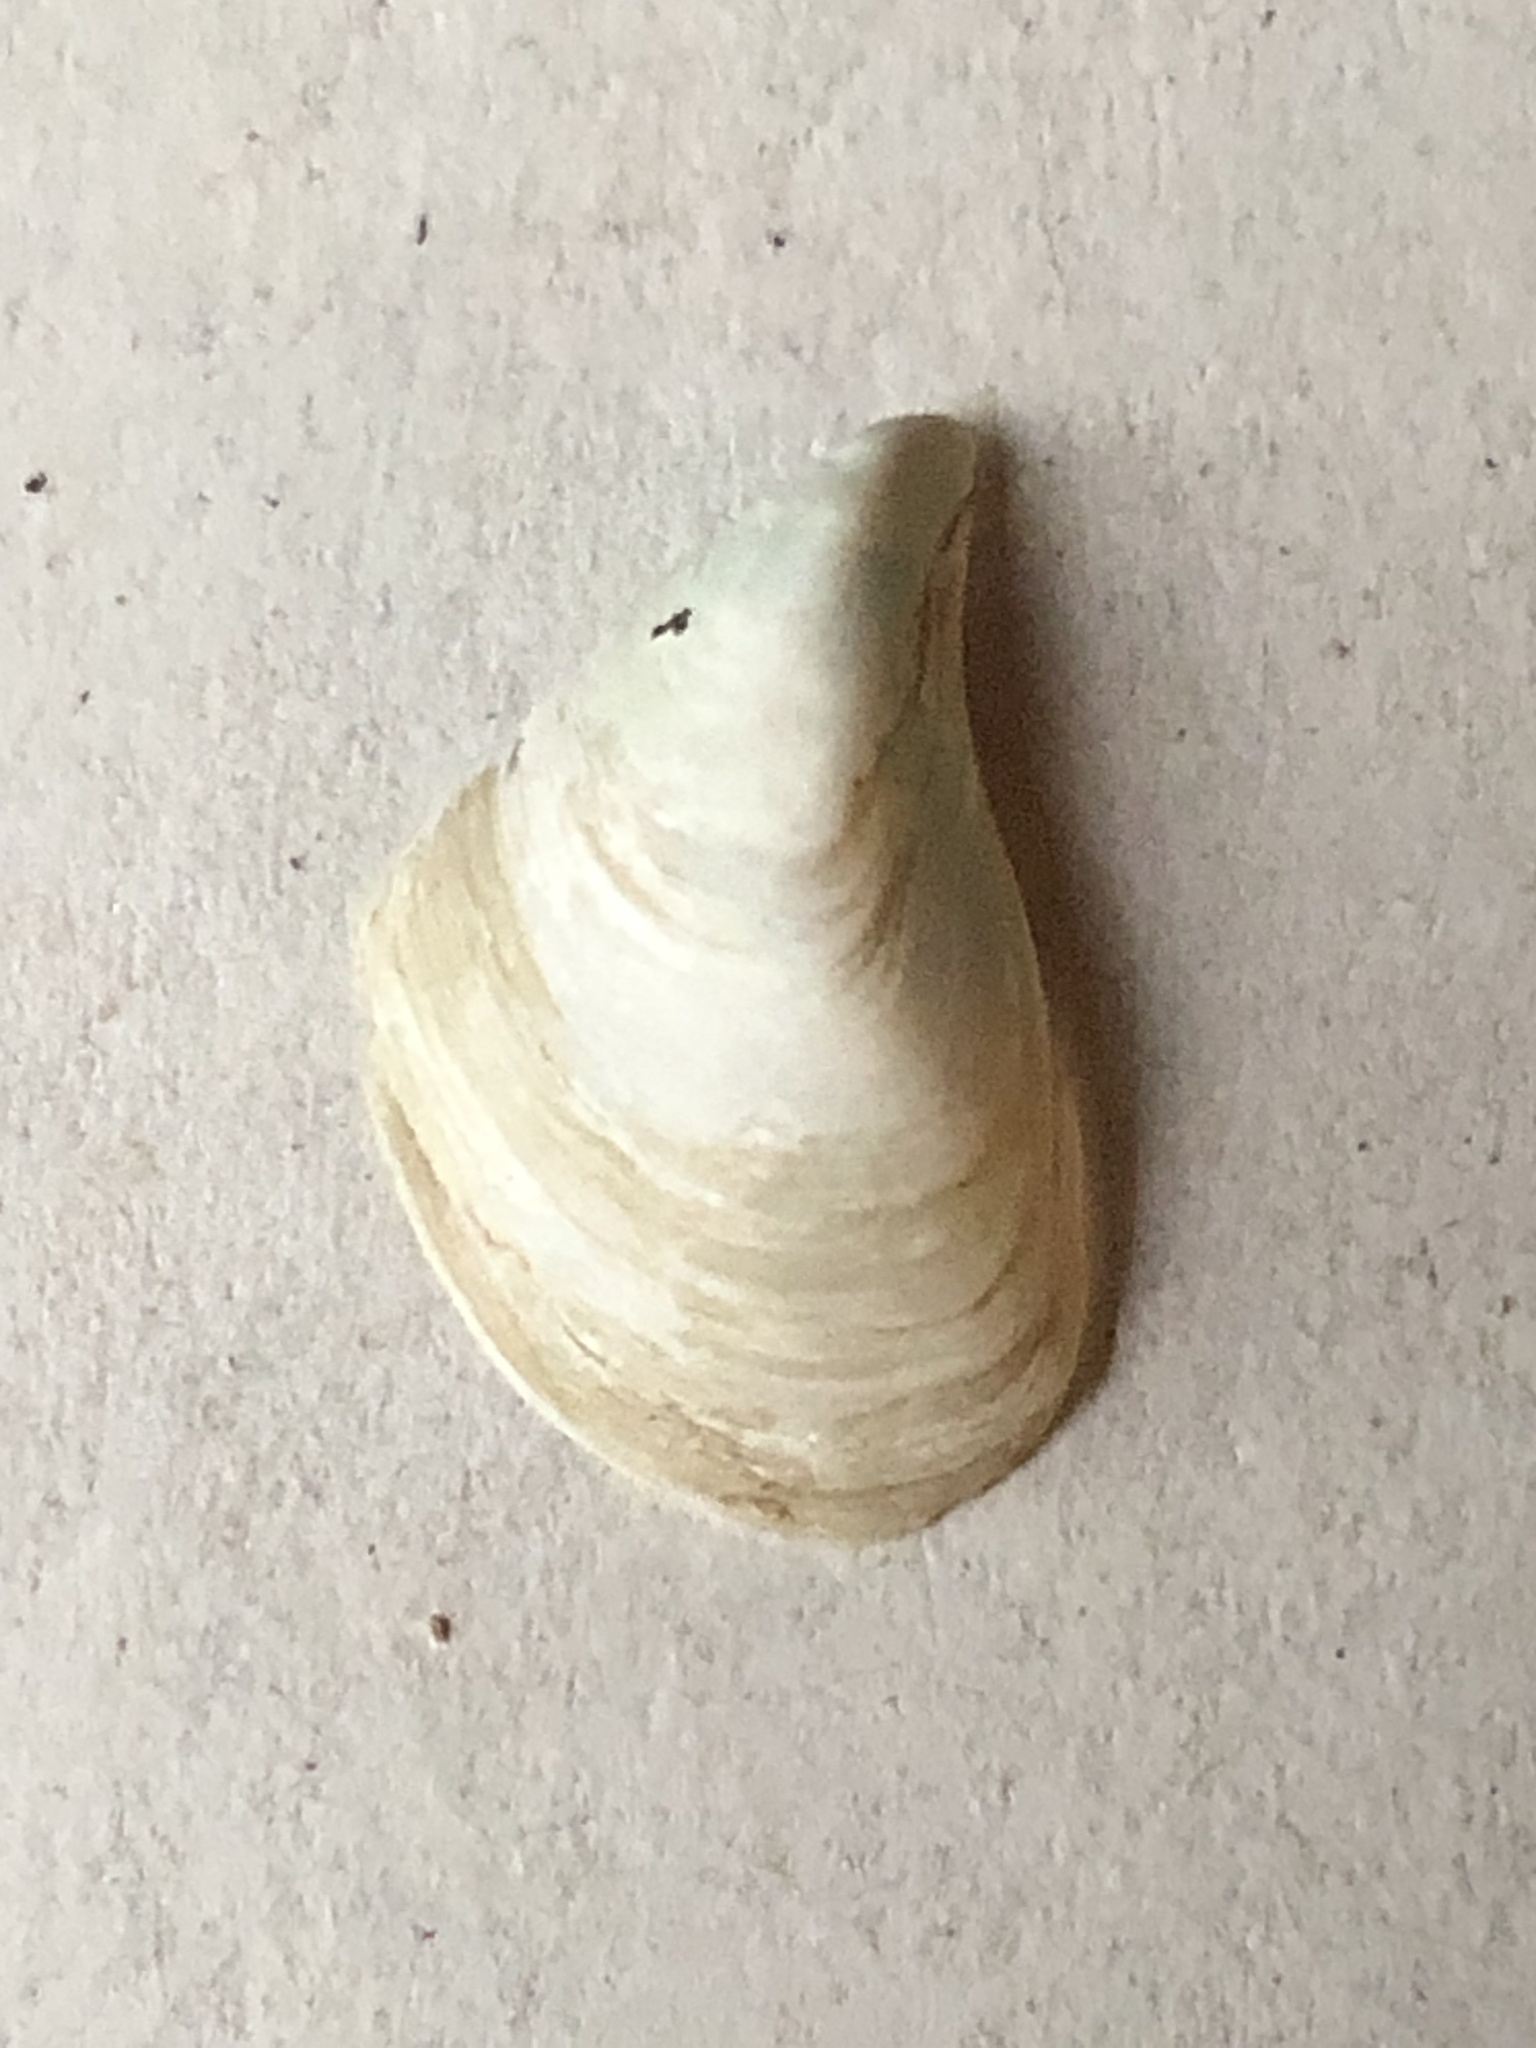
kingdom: Animalia
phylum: Mollusca
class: Bivalvia
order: Myida
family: Dreissenidae
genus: Dreissena
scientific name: Dreissena bugensis
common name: Quagga mussel
